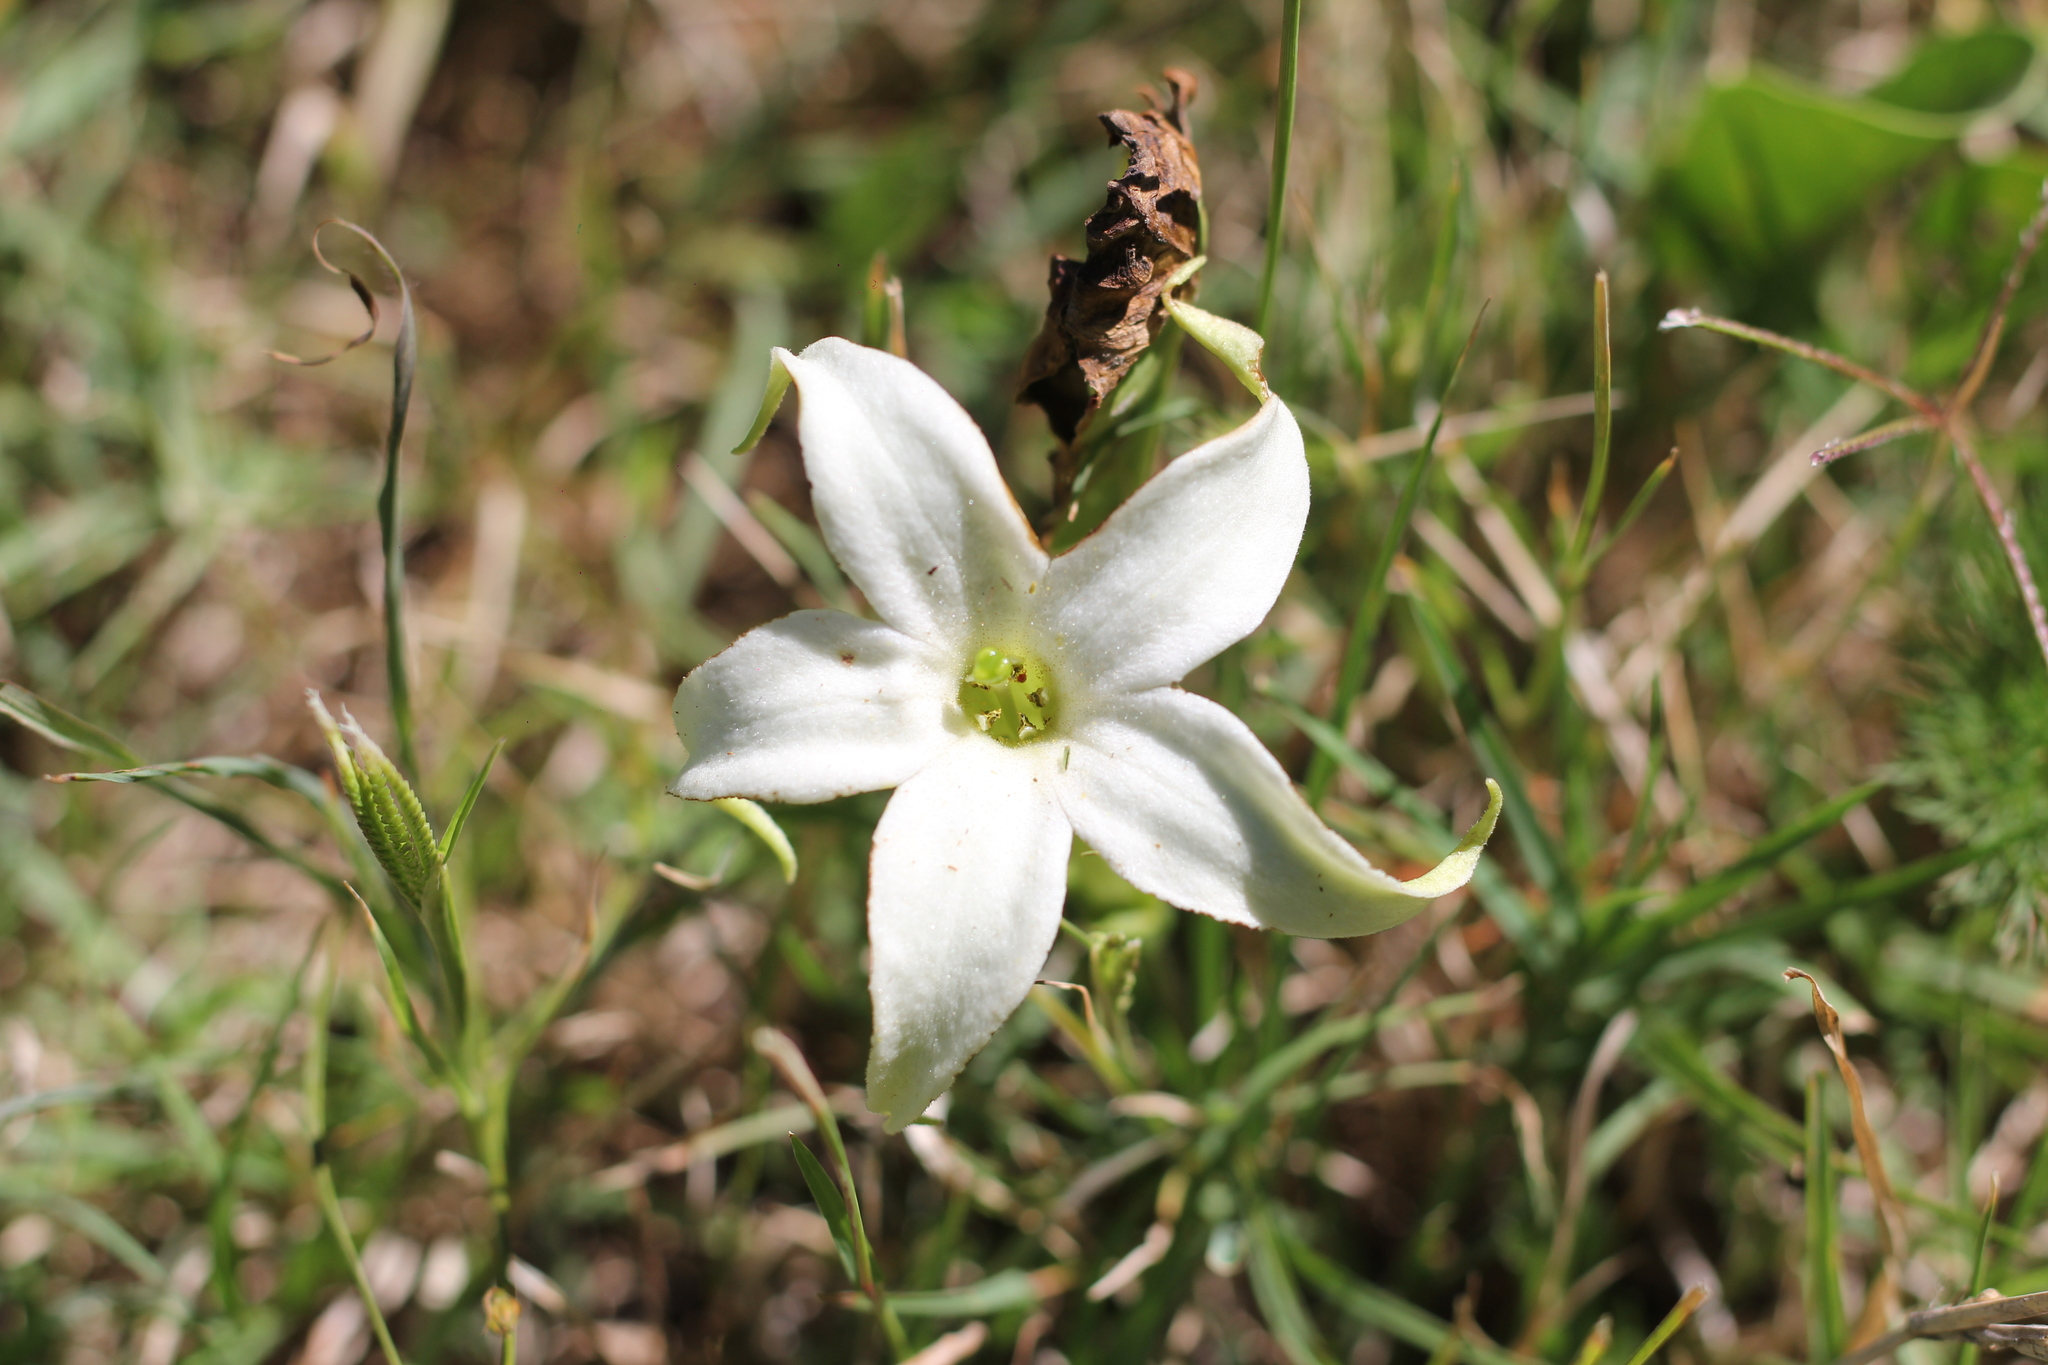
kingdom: Plantae
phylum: Tracheophyta
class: Magnoliopsida
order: Solanales
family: Solanaceae
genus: Jaborosa
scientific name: Jaborosa integrifolia
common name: Springblossom
